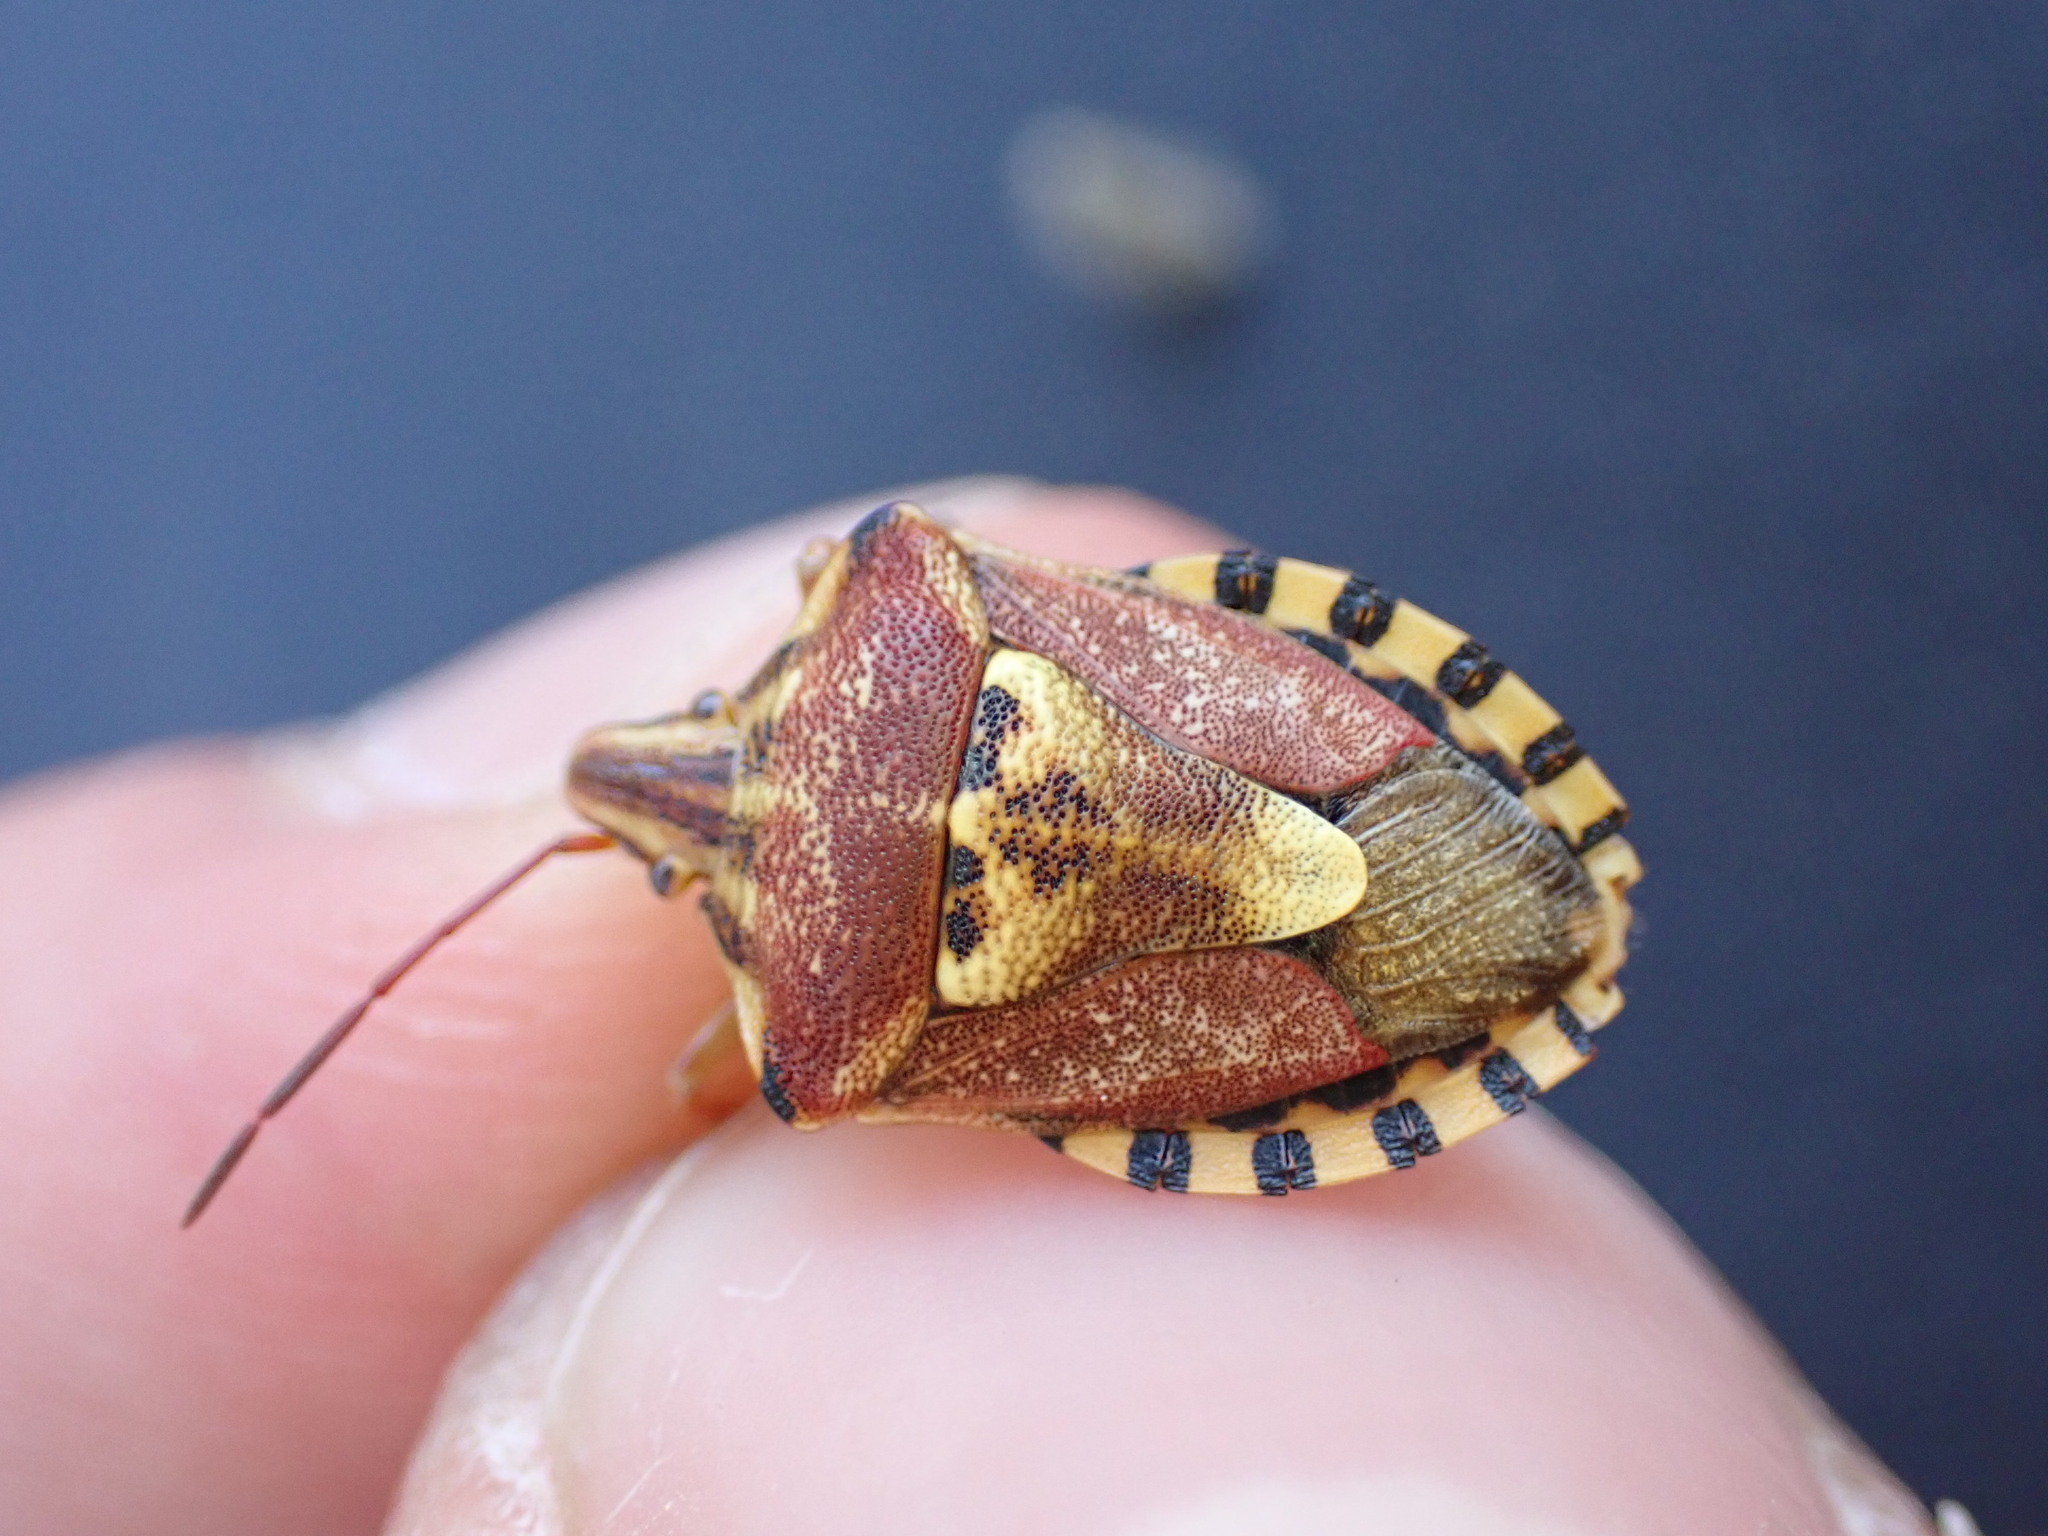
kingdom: Animalia
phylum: Arthropoda
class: Insecta
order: Hemiptera
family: Miridae
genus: Orthops
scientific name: Orthops kalmii
